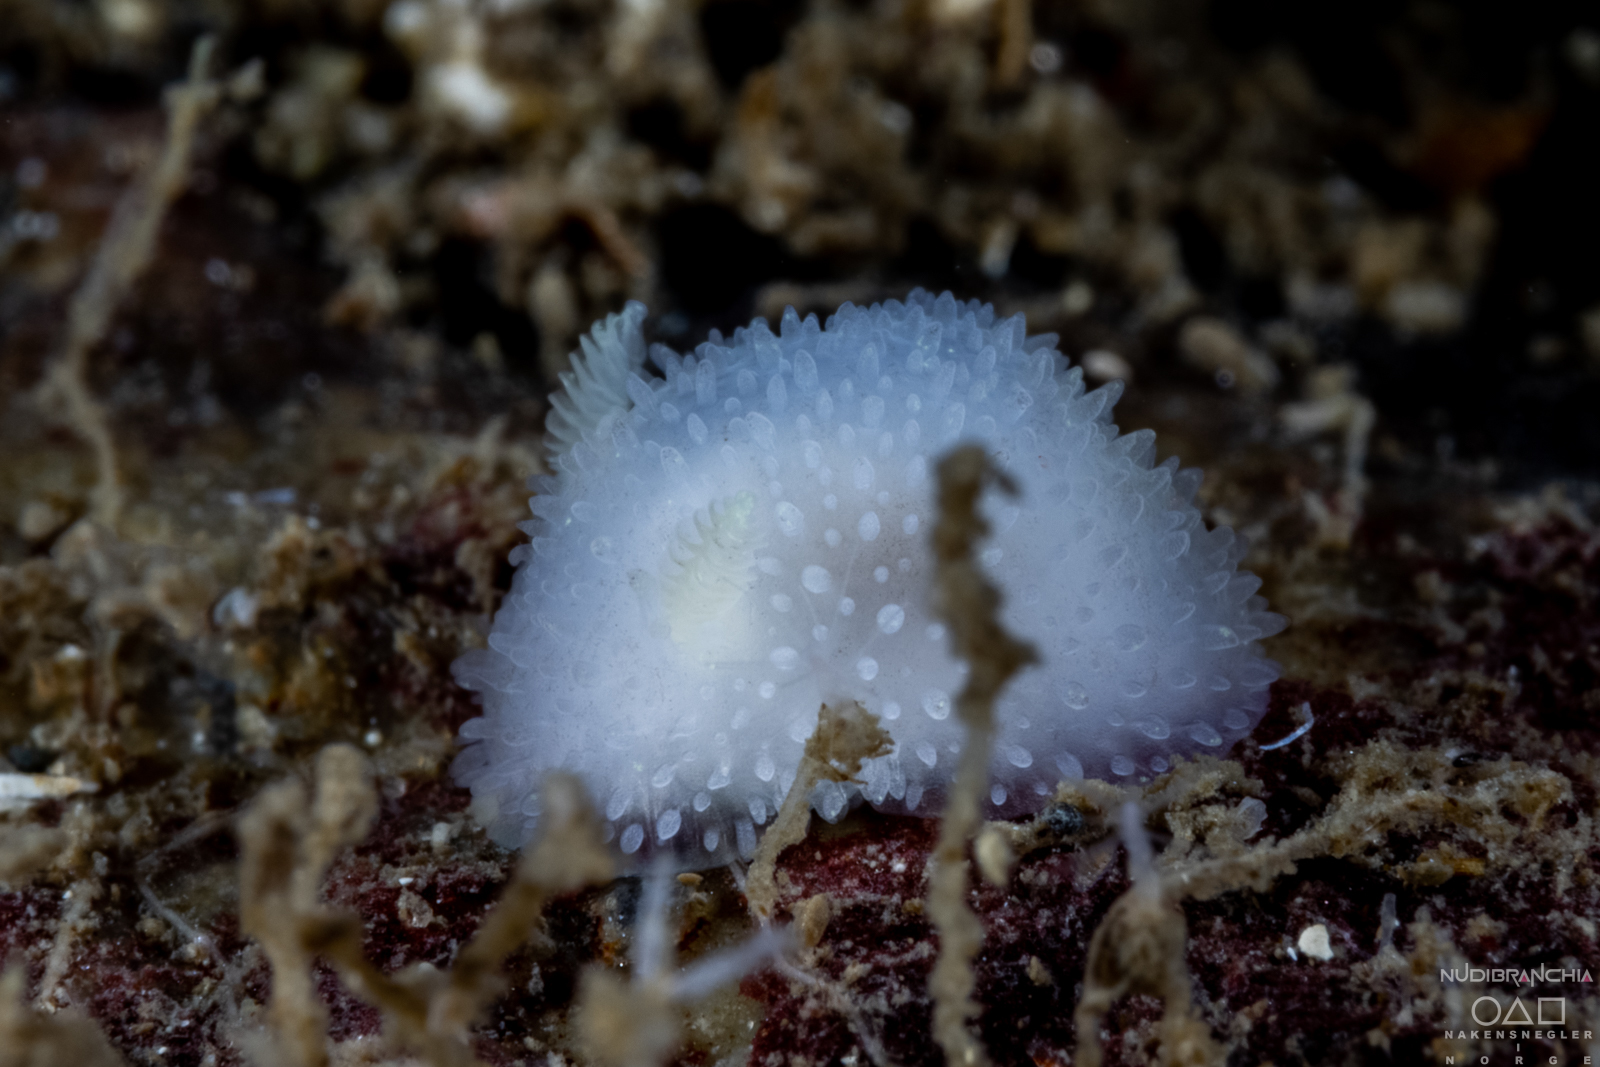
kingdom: Animalia
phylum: Mollusca
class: Gastropoda
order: Nudibranchia
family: Onchidorididae
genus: Acanthodoris
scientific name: Acanthodoris pilosa
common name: Hairy spiny doris
